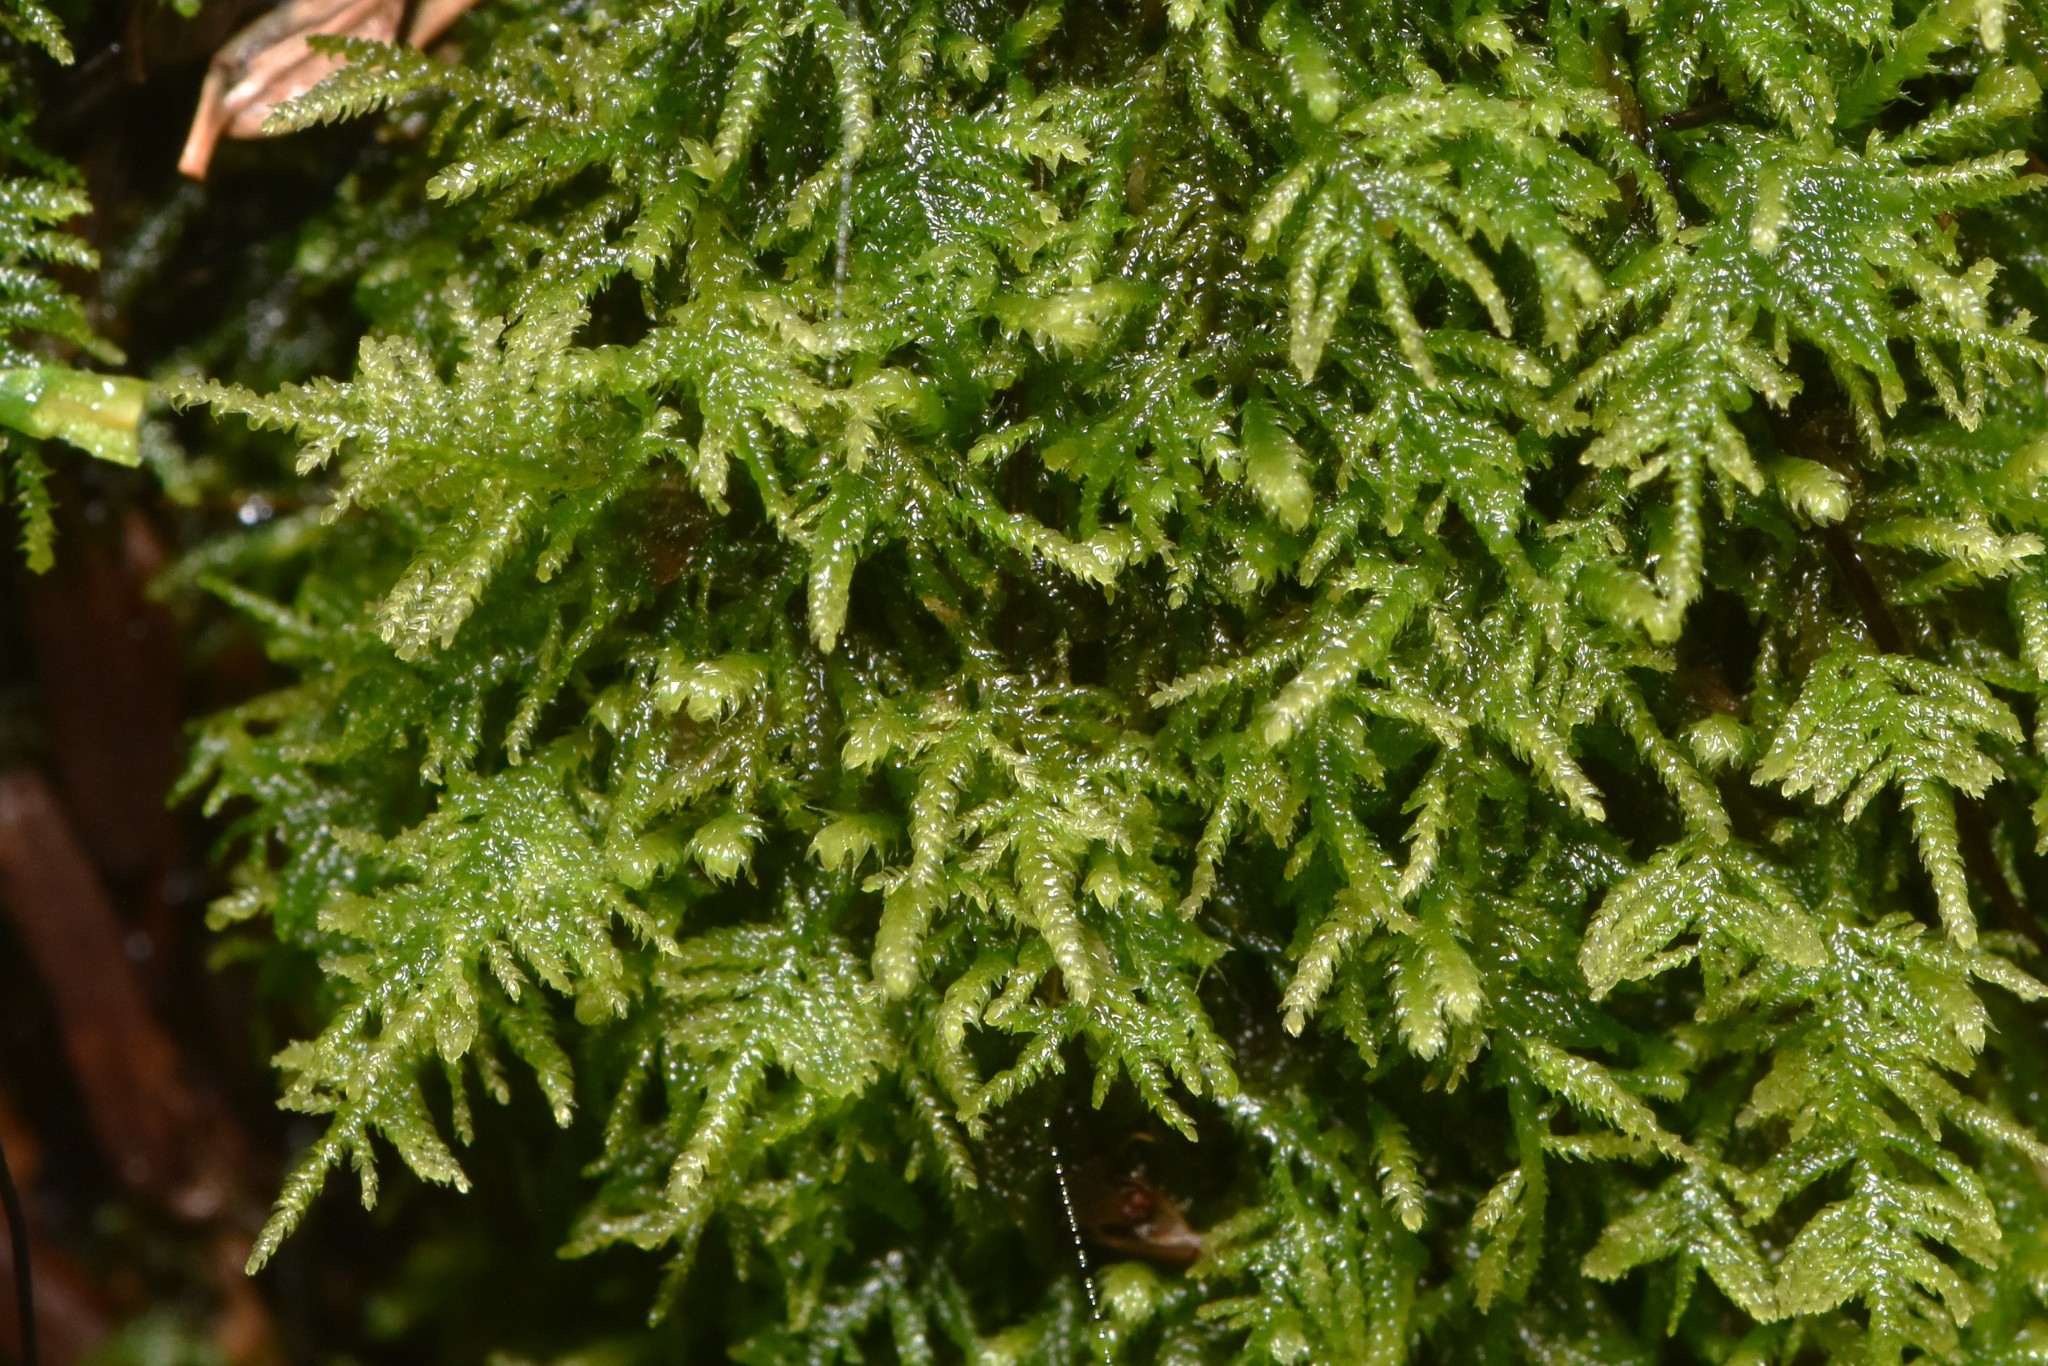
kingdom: Plantae
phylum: Bryophyta
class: Bryopsida
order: Hypnales
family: Lembophyllaceae
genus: Heterocladium
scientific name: Heterocladium macounii
